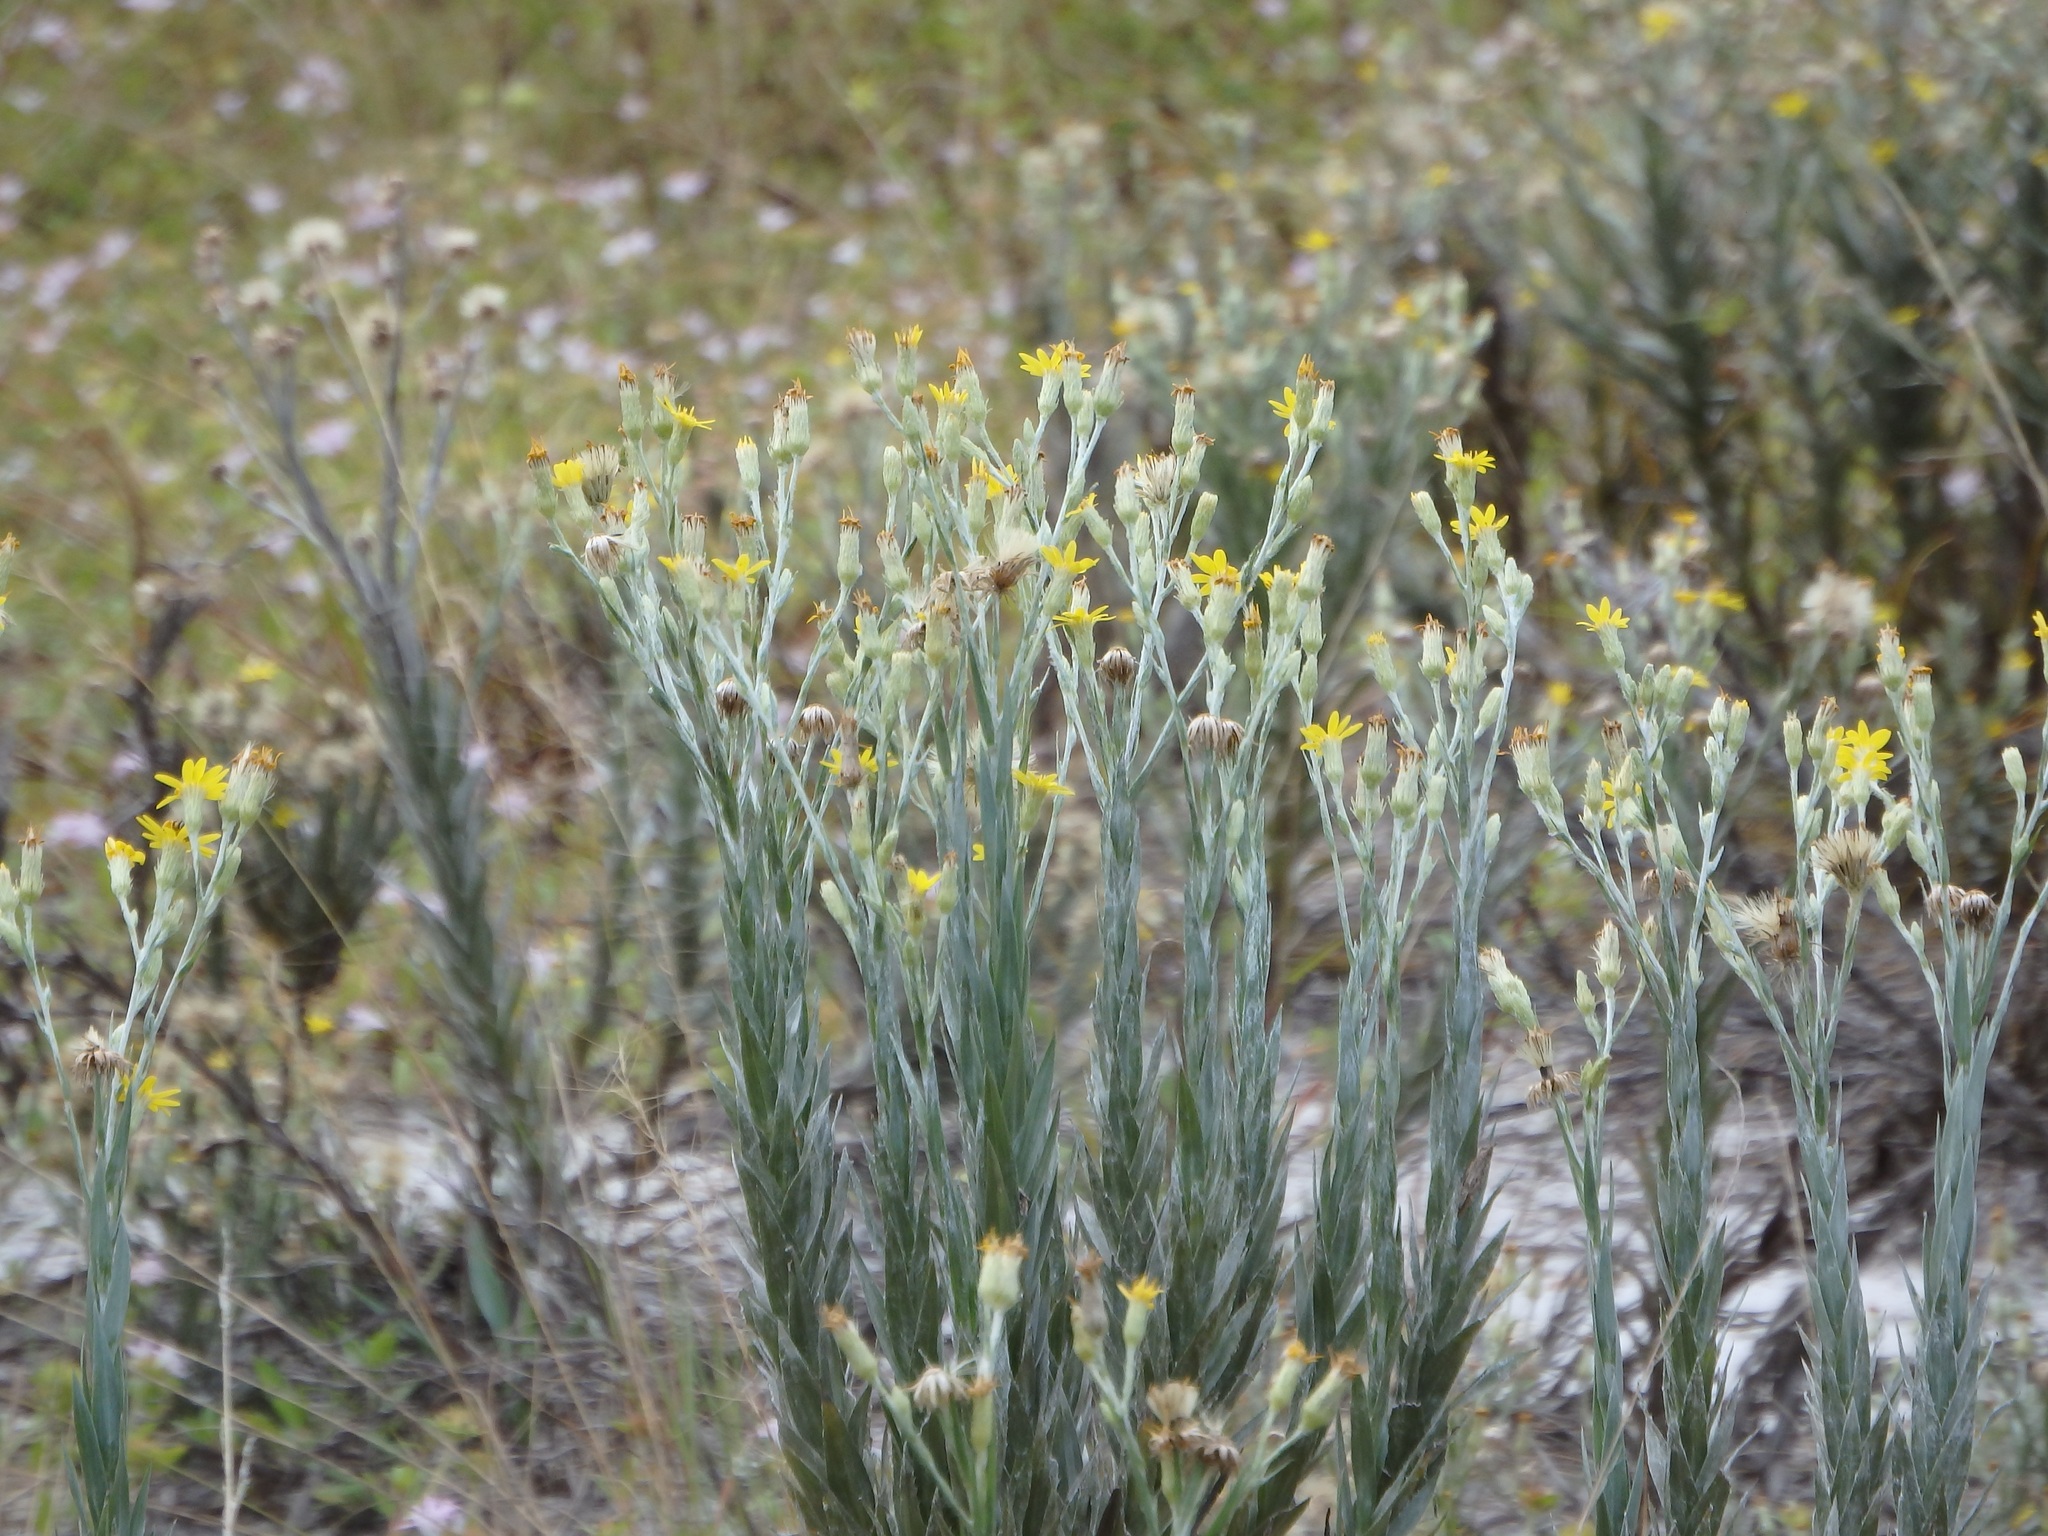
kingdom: Plantae
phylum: Tracheophyta
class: Magnoliopsida
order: Asterales
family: Asteraceae
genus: Pityopsis
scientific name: Pityopsis latifolia
